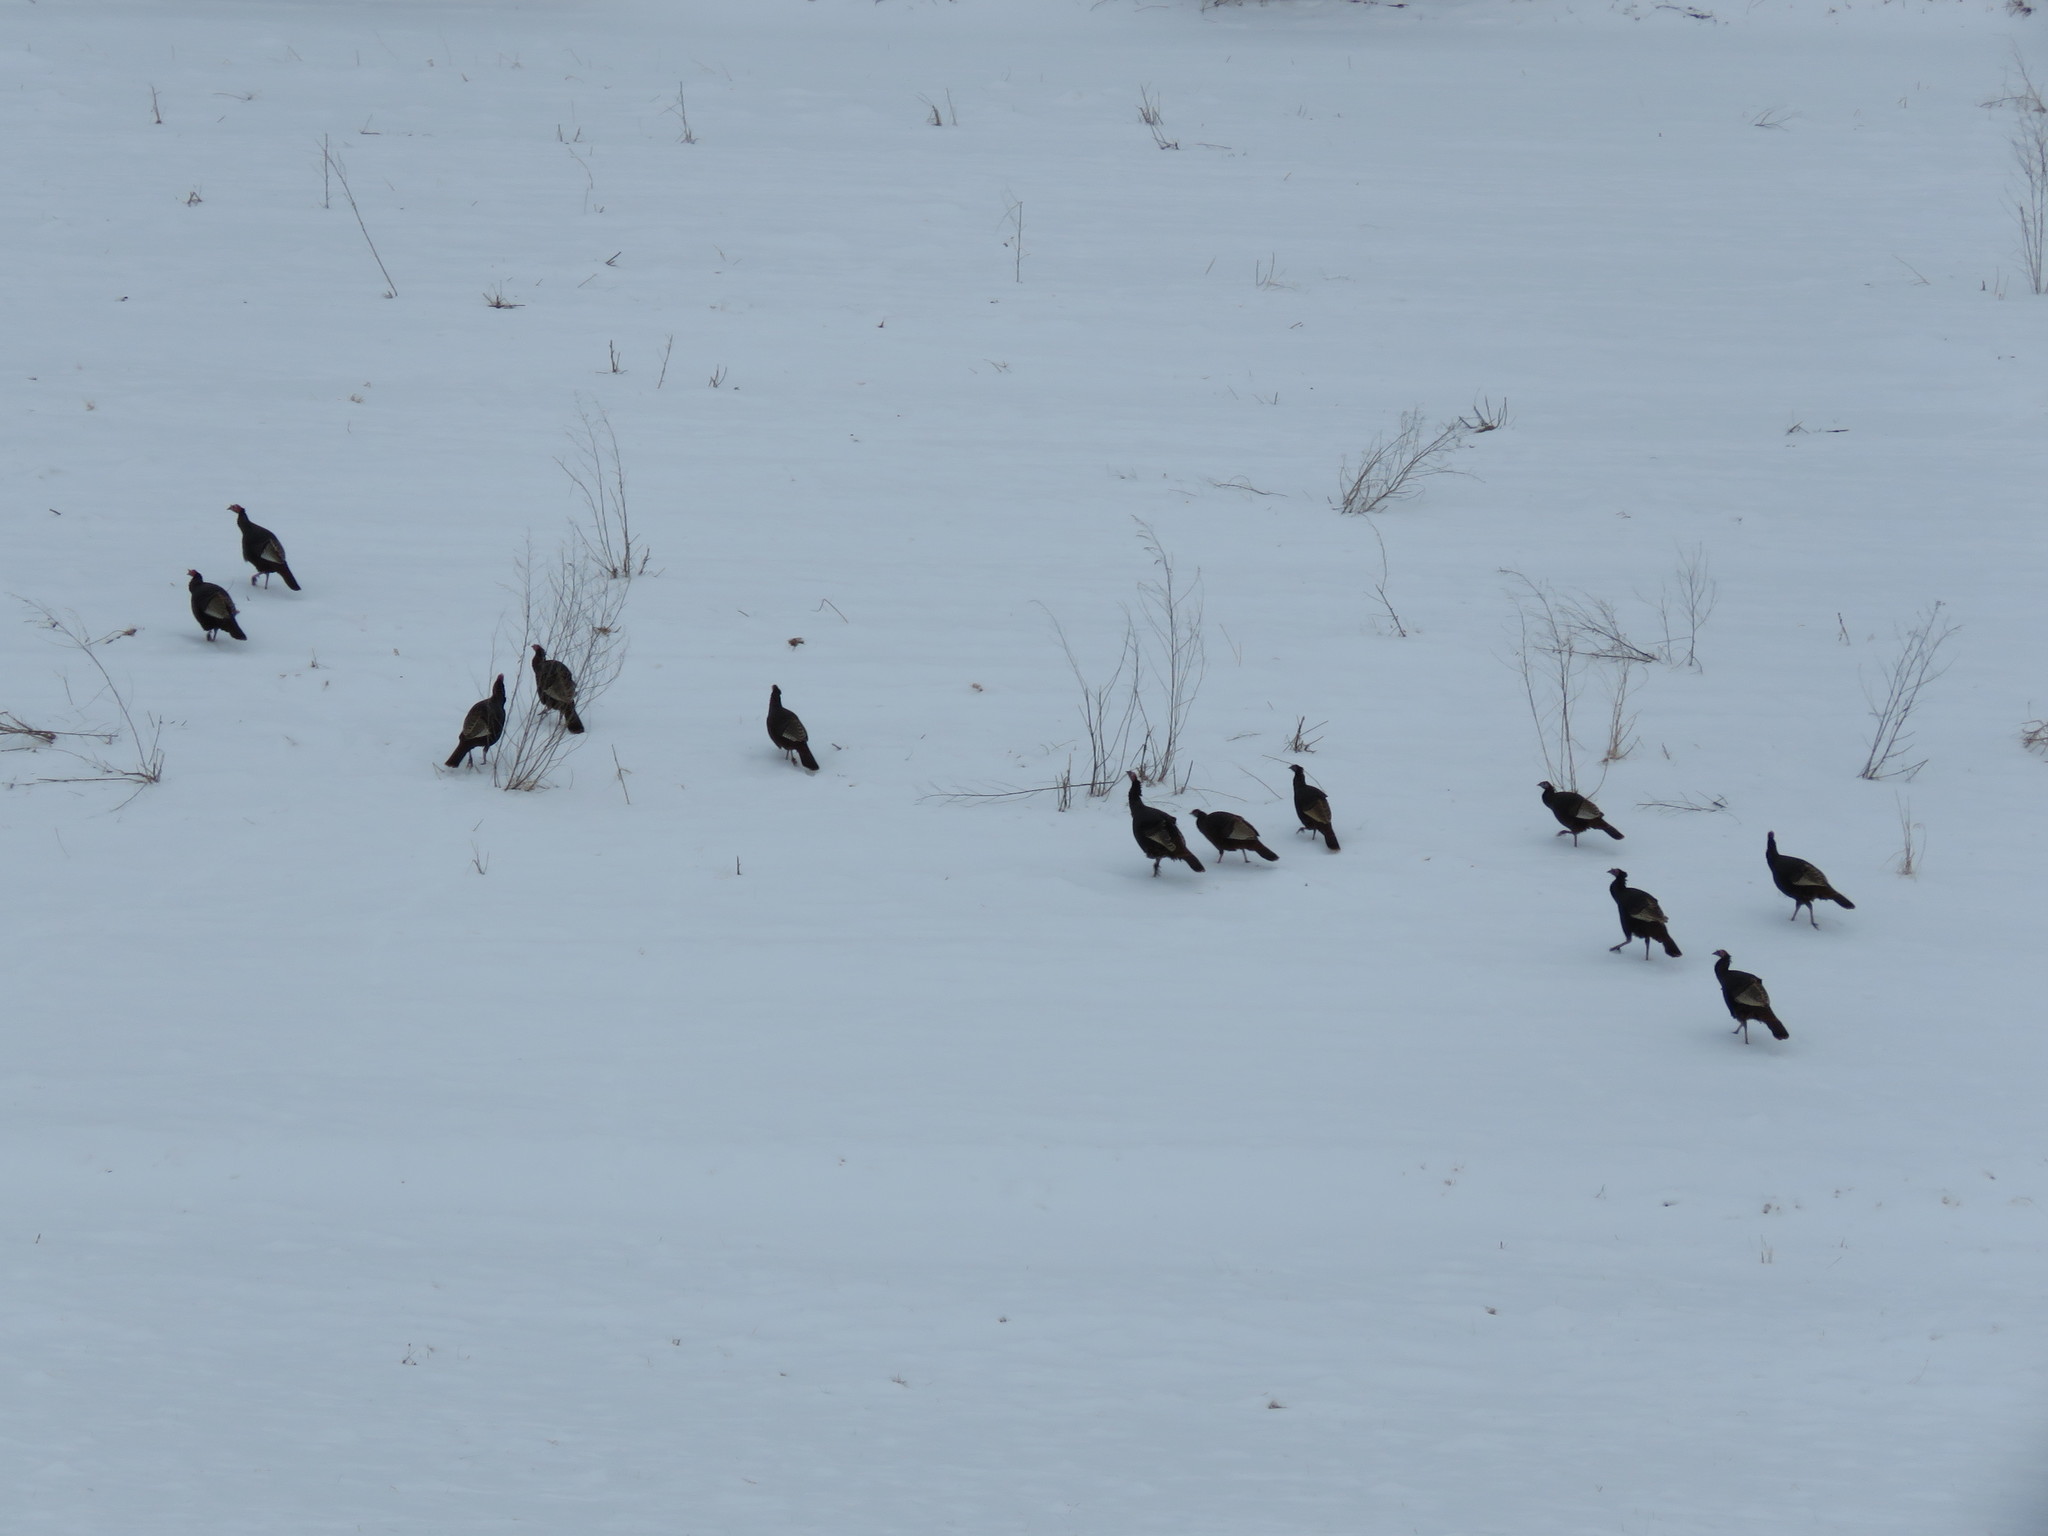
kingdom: Animalia
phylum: Chordata
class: Aves
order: Galliformes
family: Phasianidae
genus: Meleagris
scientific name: Meleagris gallopavo
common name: Wild turkey
